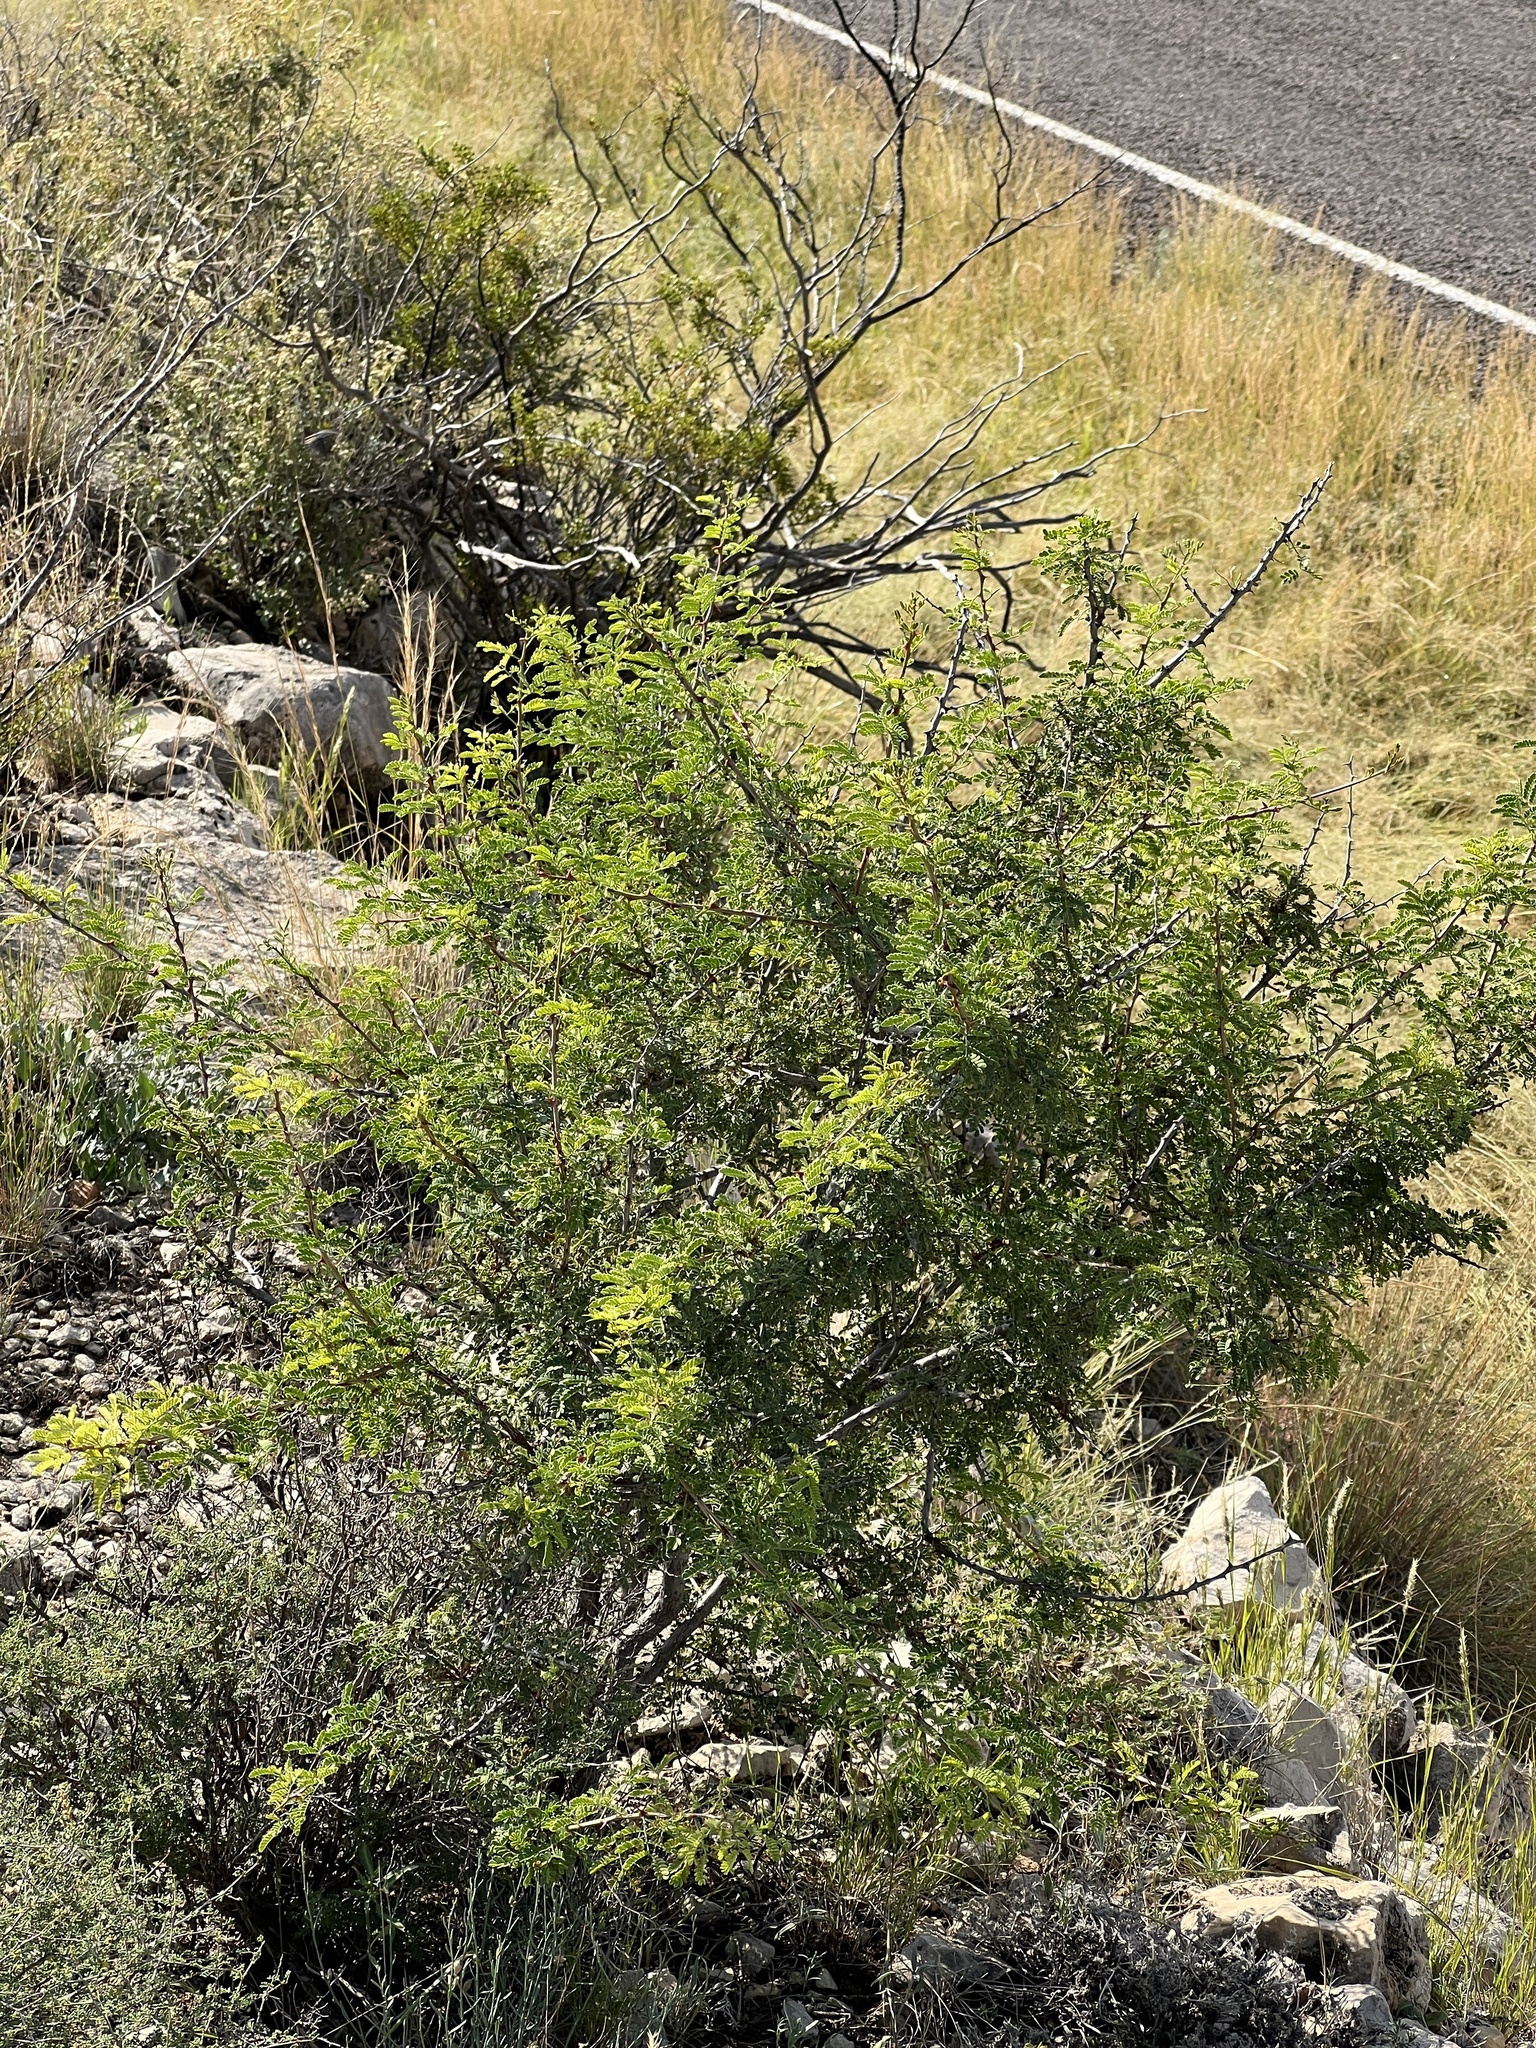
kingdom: Plantae
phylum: Tracheophyta
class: Magnoliopsida
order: Fabales
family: Fabaceae
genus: Senegalia
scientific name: Senegalia greggii
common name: Texas-mimosa
